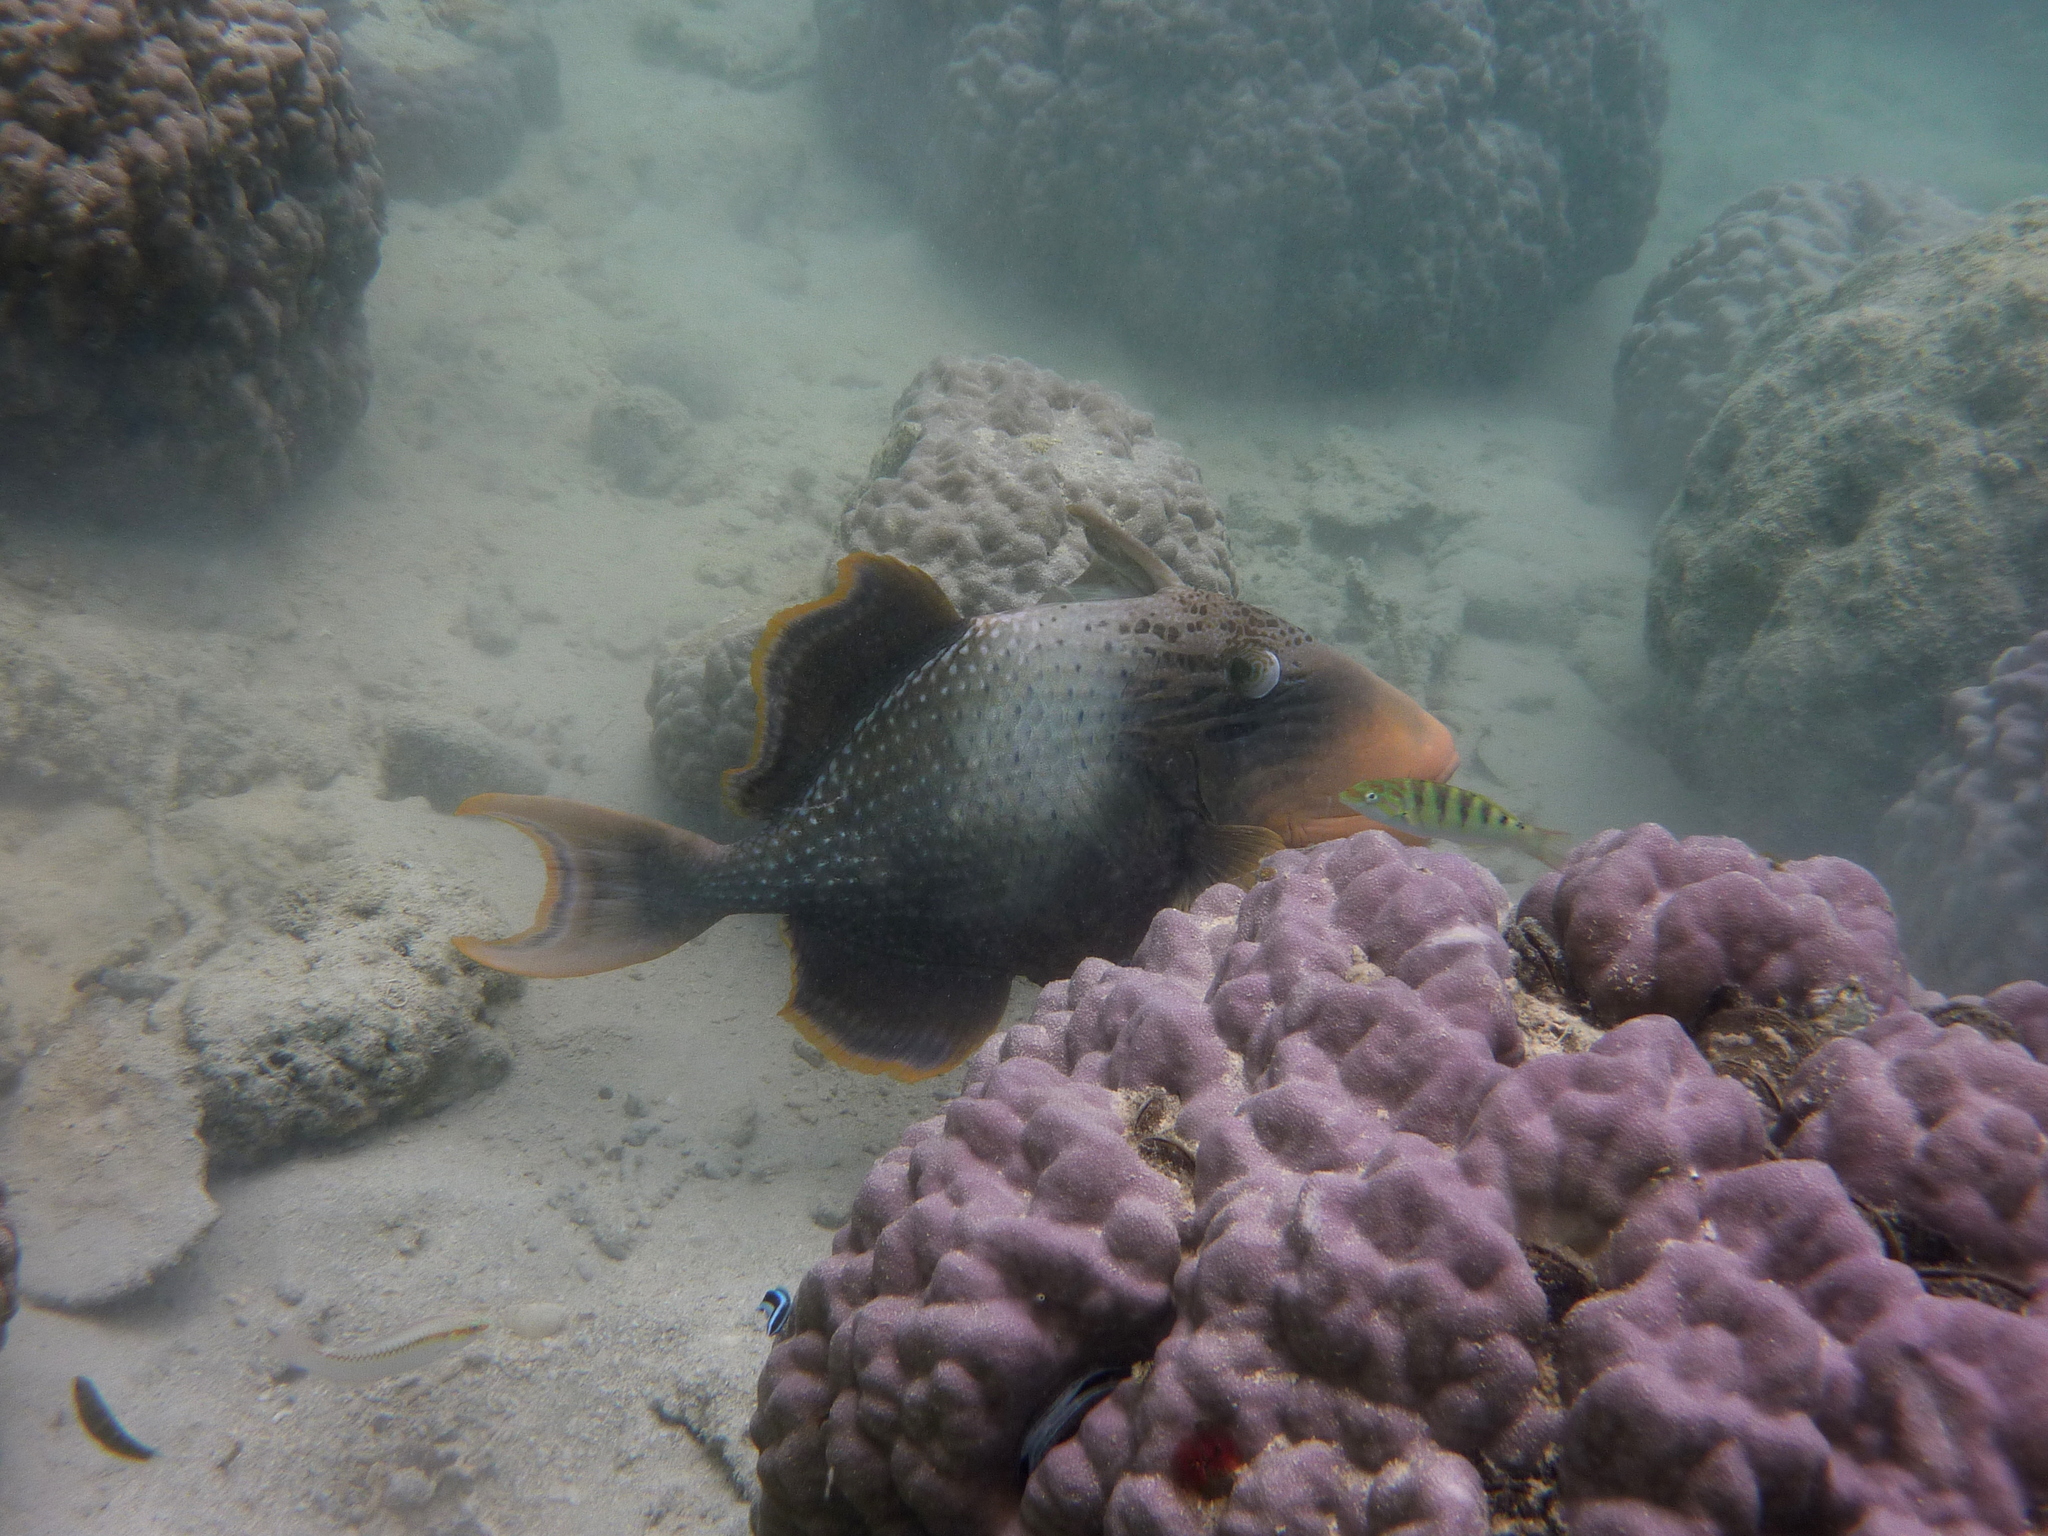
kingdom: Animalia
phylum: Chordata
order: Tetraodontiformes
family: Balistidae
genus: Pseudobalistes
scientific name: Pseudobalistes flavimarginatus
